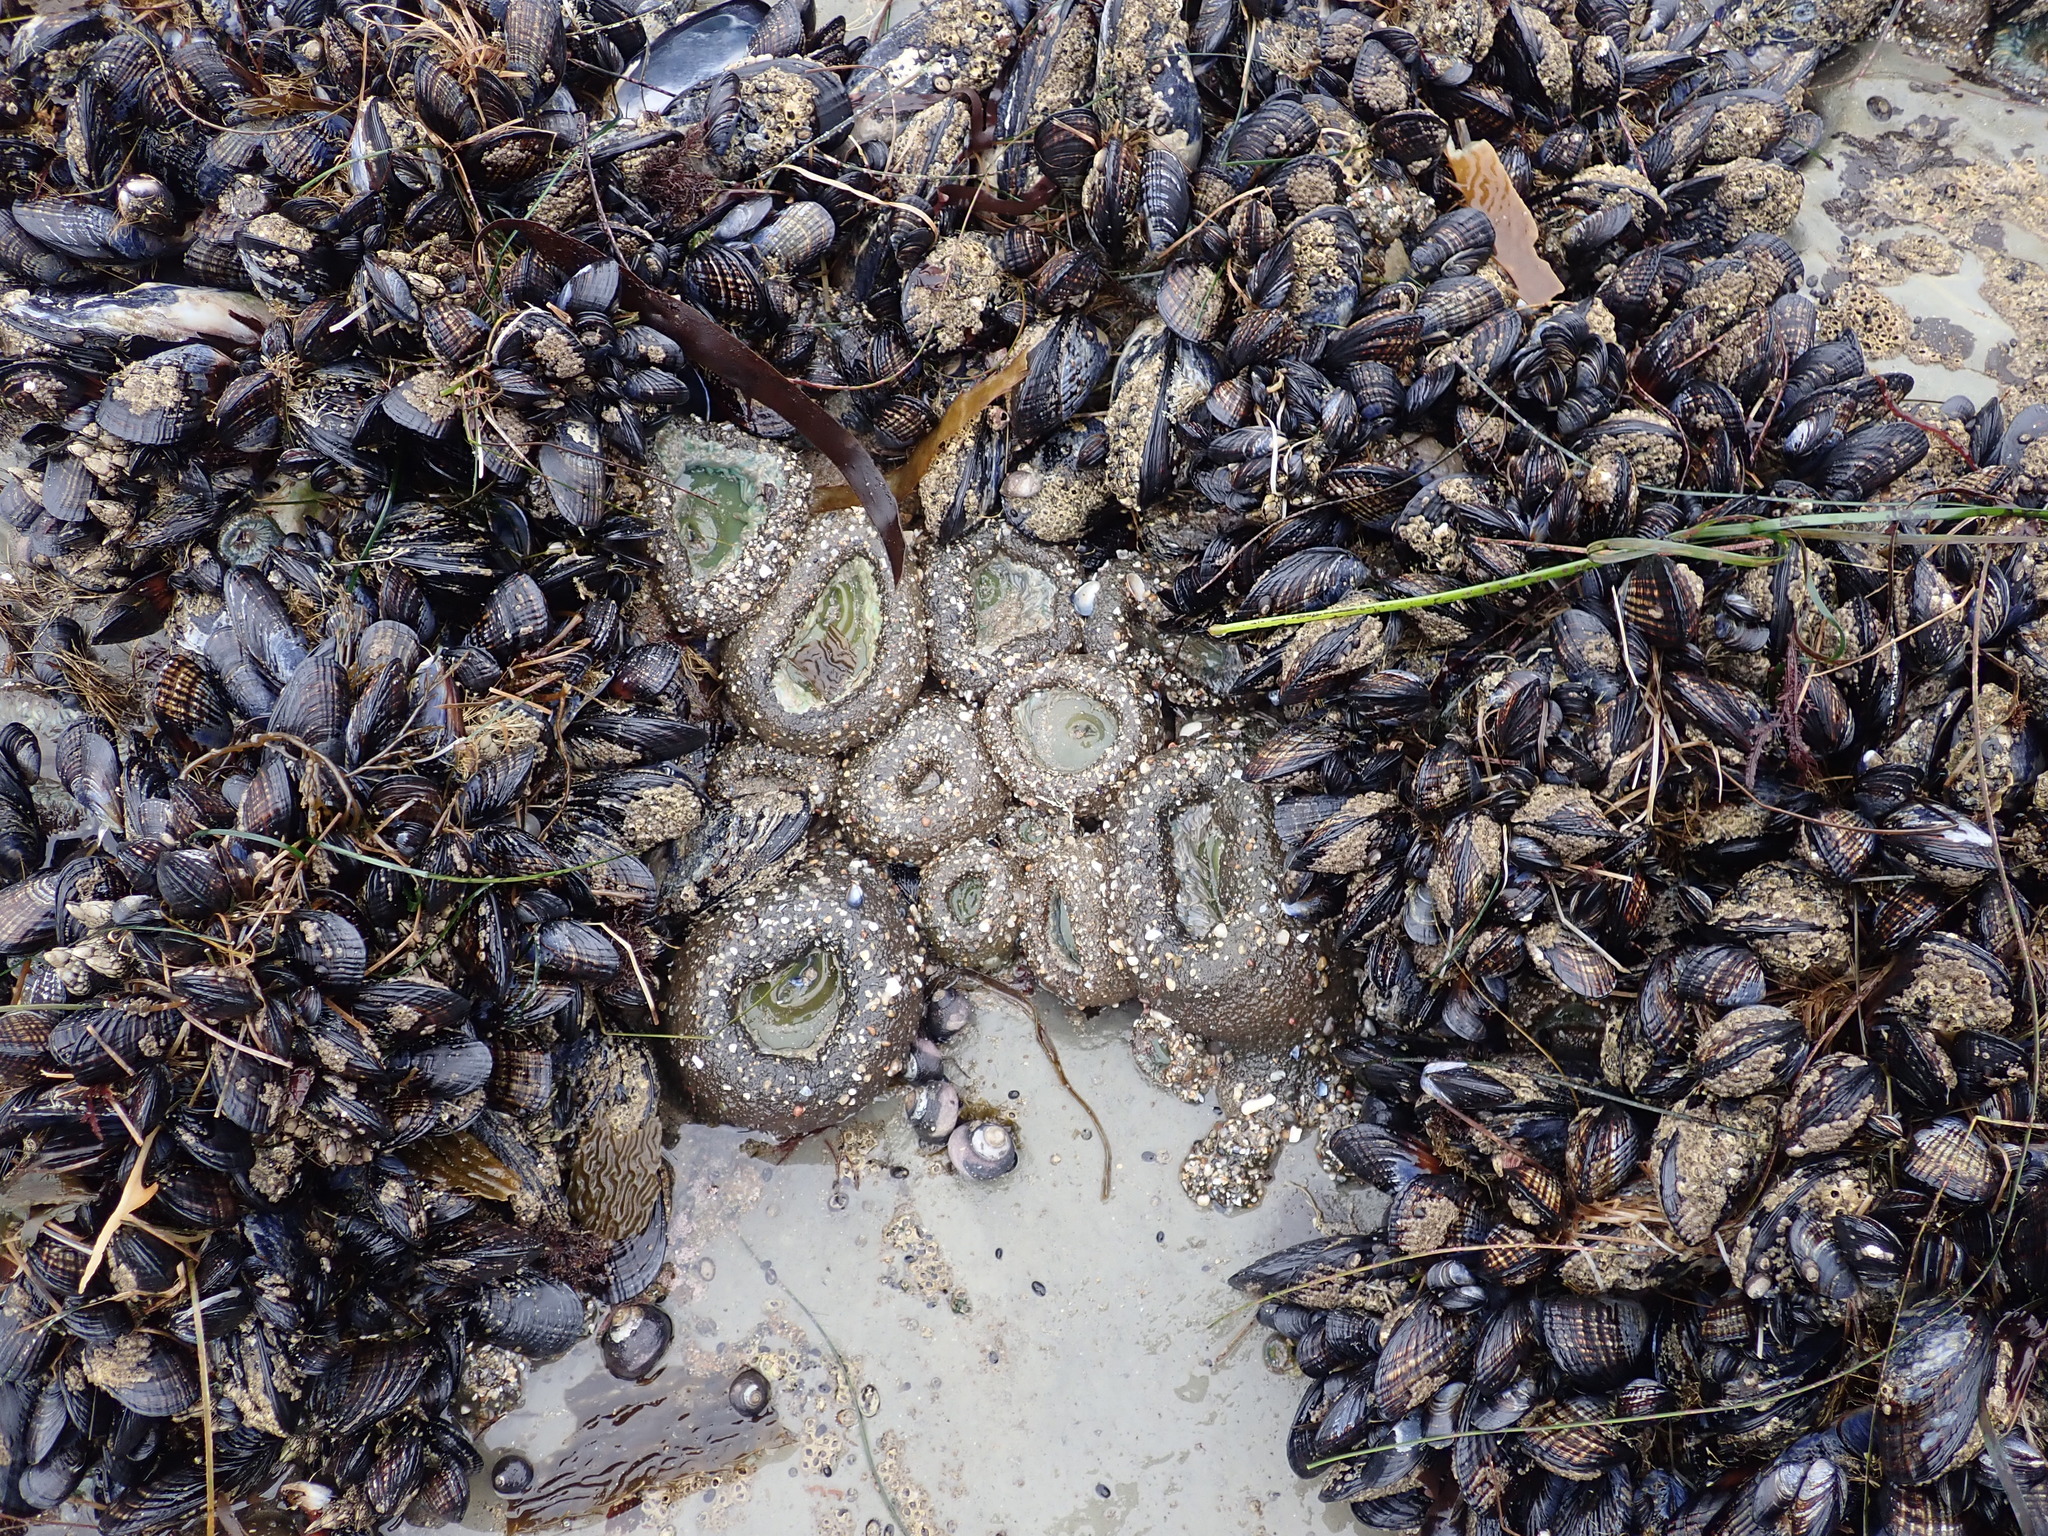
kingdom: Animalia
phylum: Cnidaria
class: Anthozoa
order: Actiniaria
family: Actiniidae
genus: Anthopleura
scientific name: Anthopleura xanthogrammica
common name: Giant green anemone
